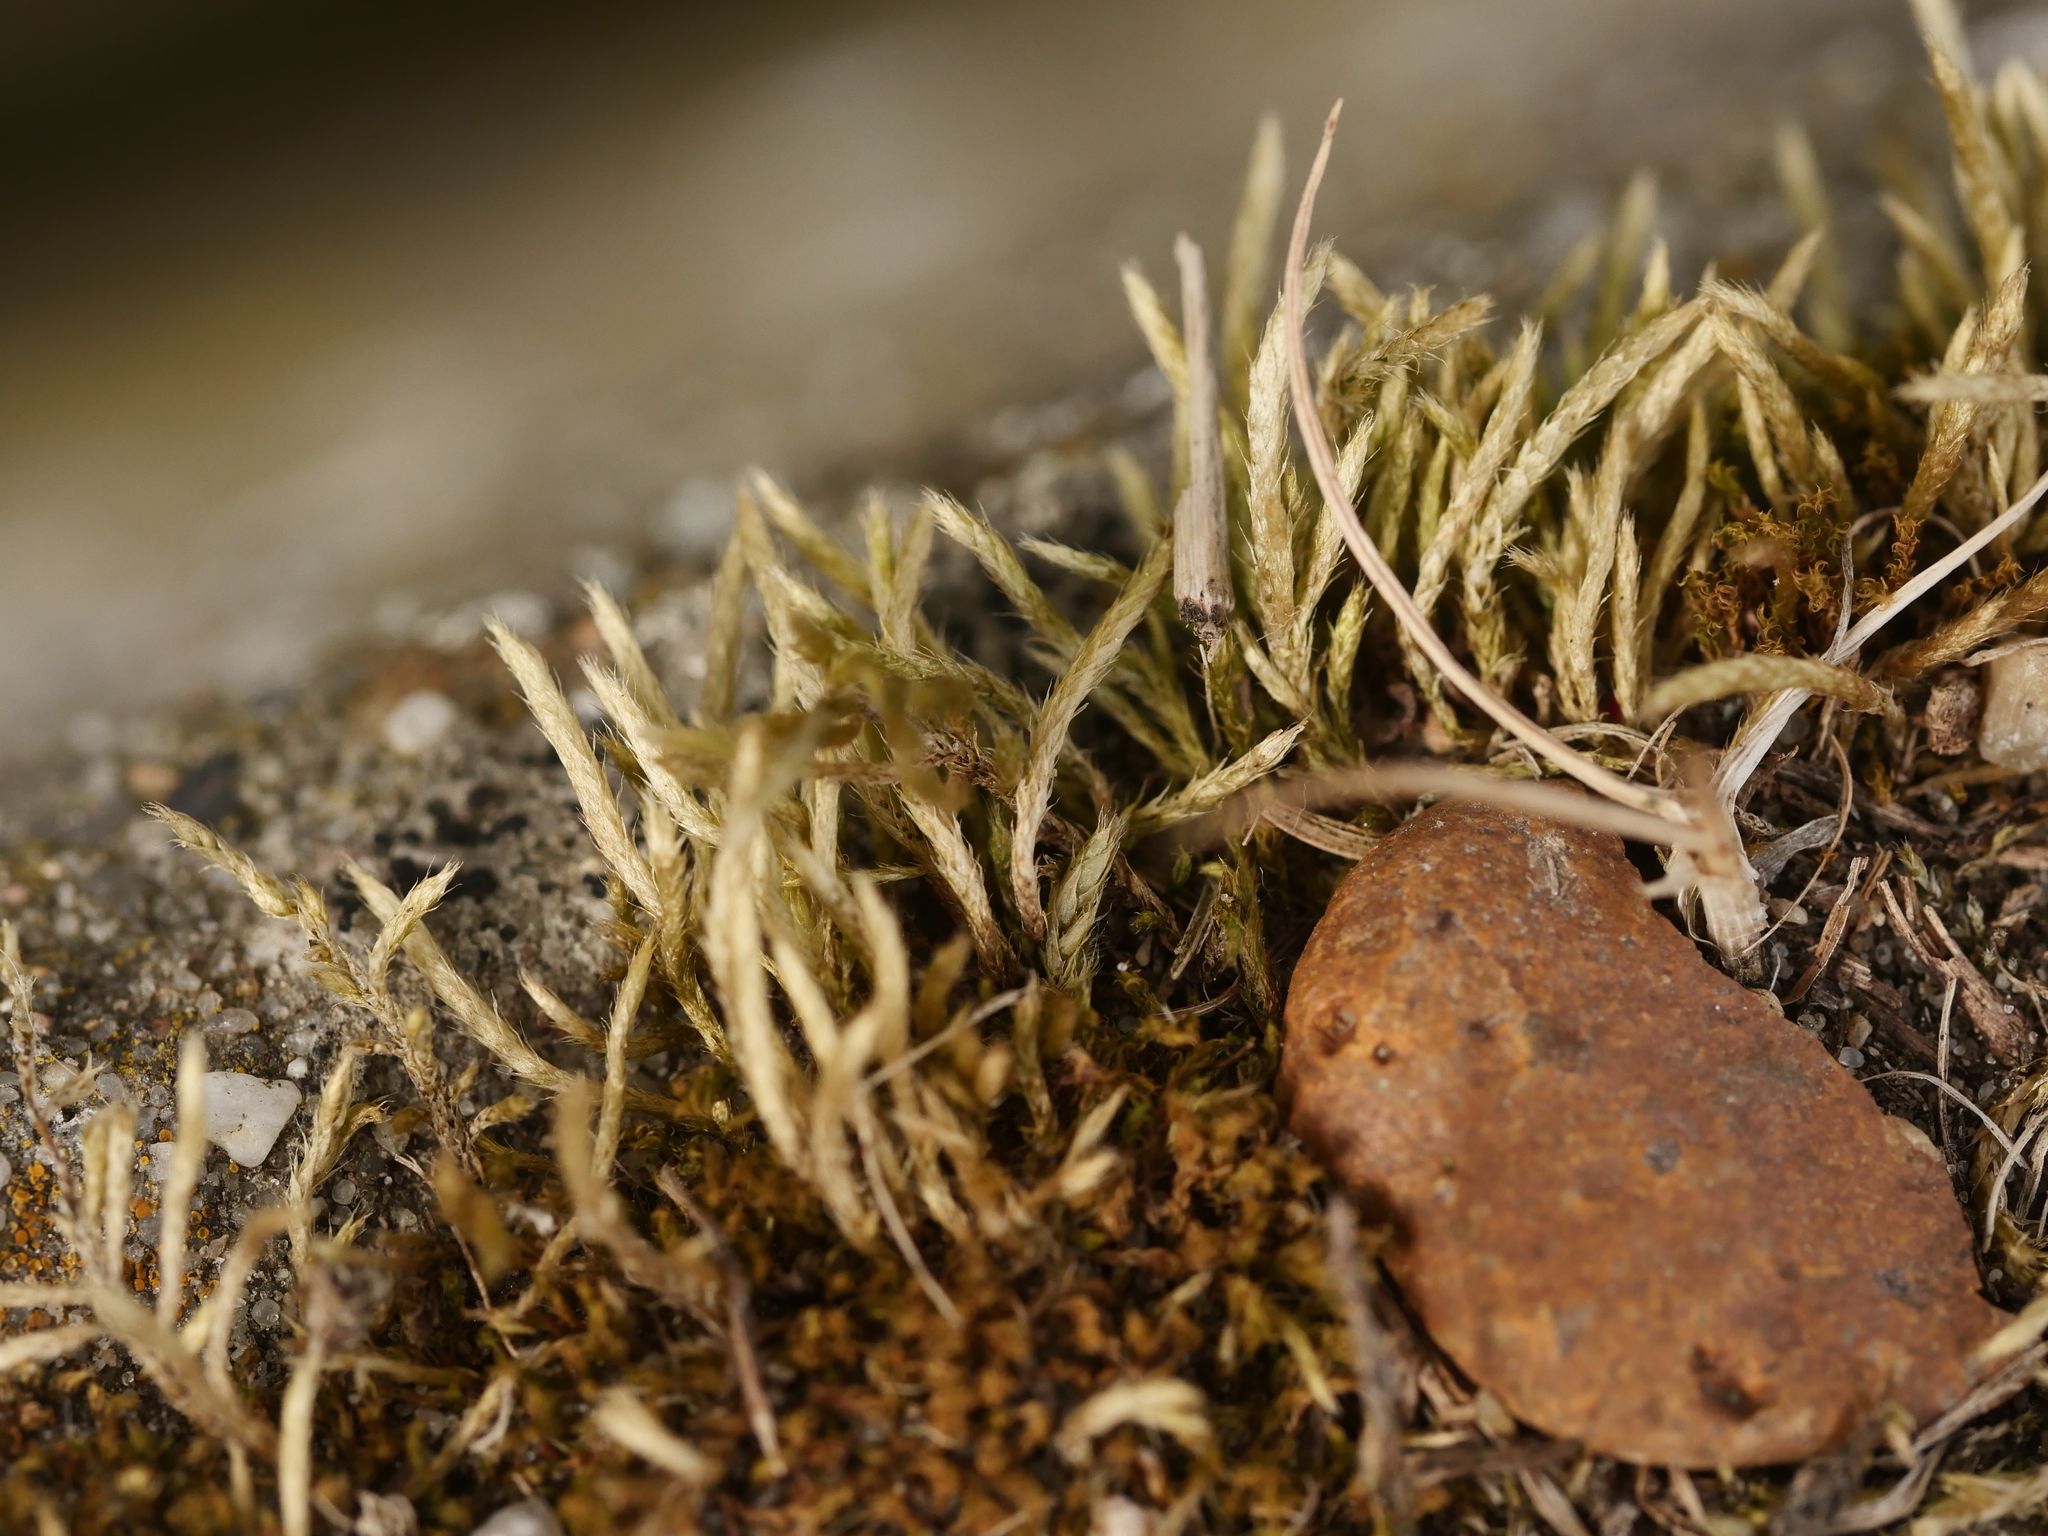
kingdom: Plantae
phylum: Bryophyta
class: Bryopsida
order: Hypnales
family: Brachytheciaceae
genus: Brachythecium
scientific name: Brachythecium albicans
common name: Whitish ragged moss
